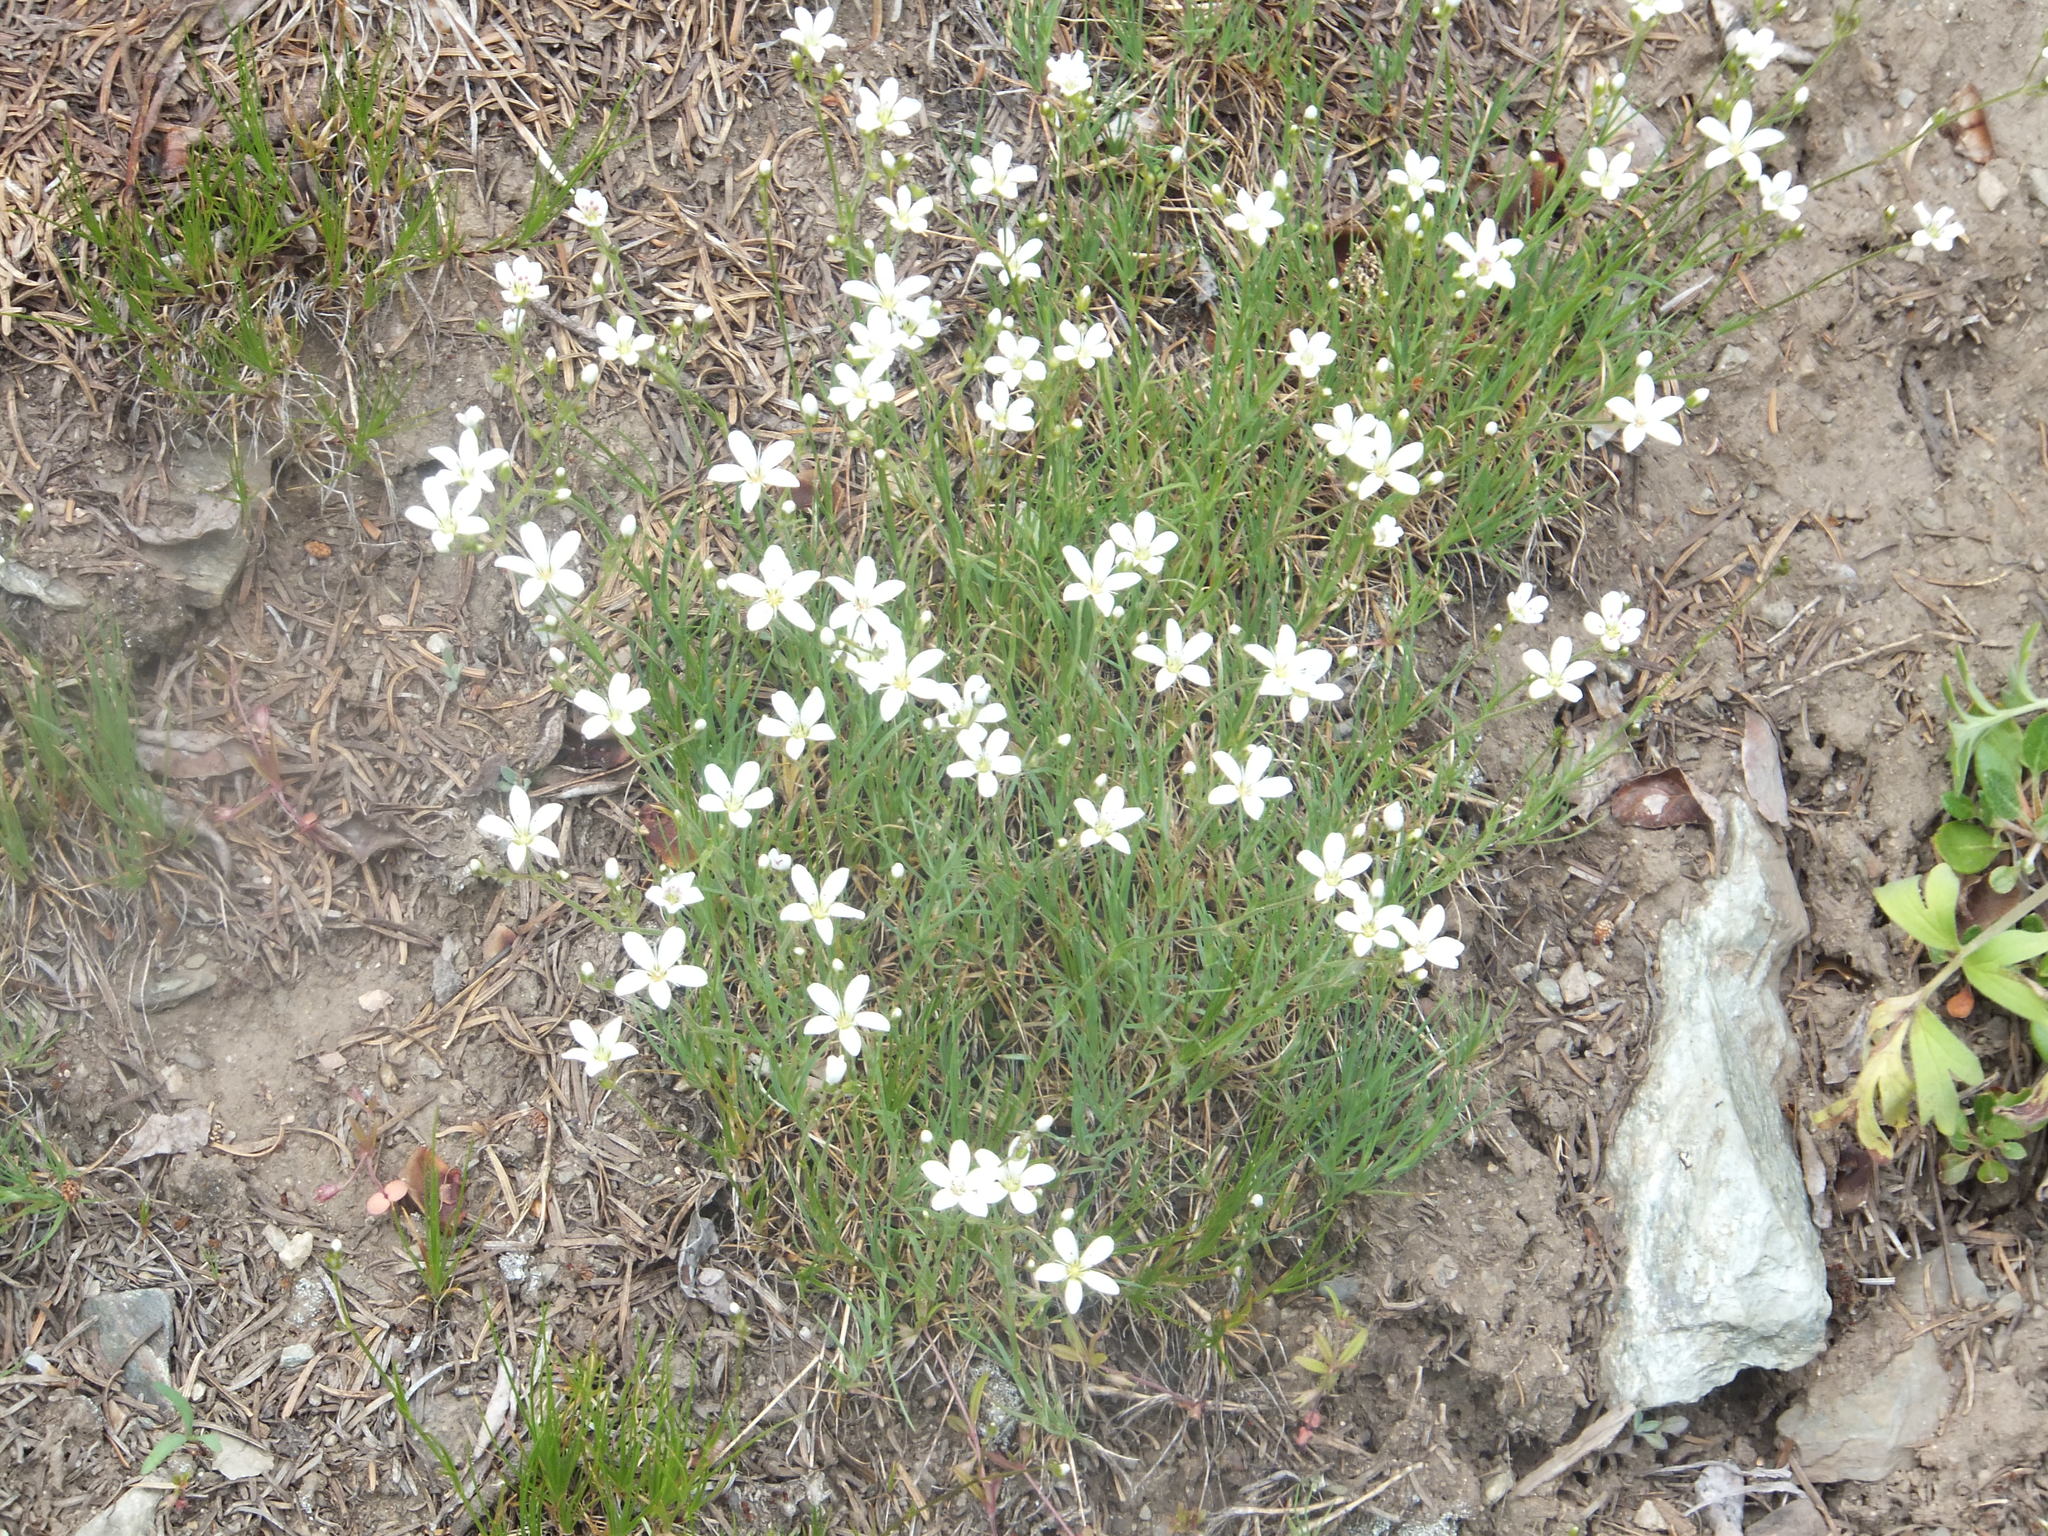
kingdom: Plantae
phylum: Tracheophyta
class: Magnoliopsida
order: Caryophyllales
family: Caryophyllaceae
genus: Eremogone
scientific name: Eremogone capillaris
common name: Slender mountain sandwort
